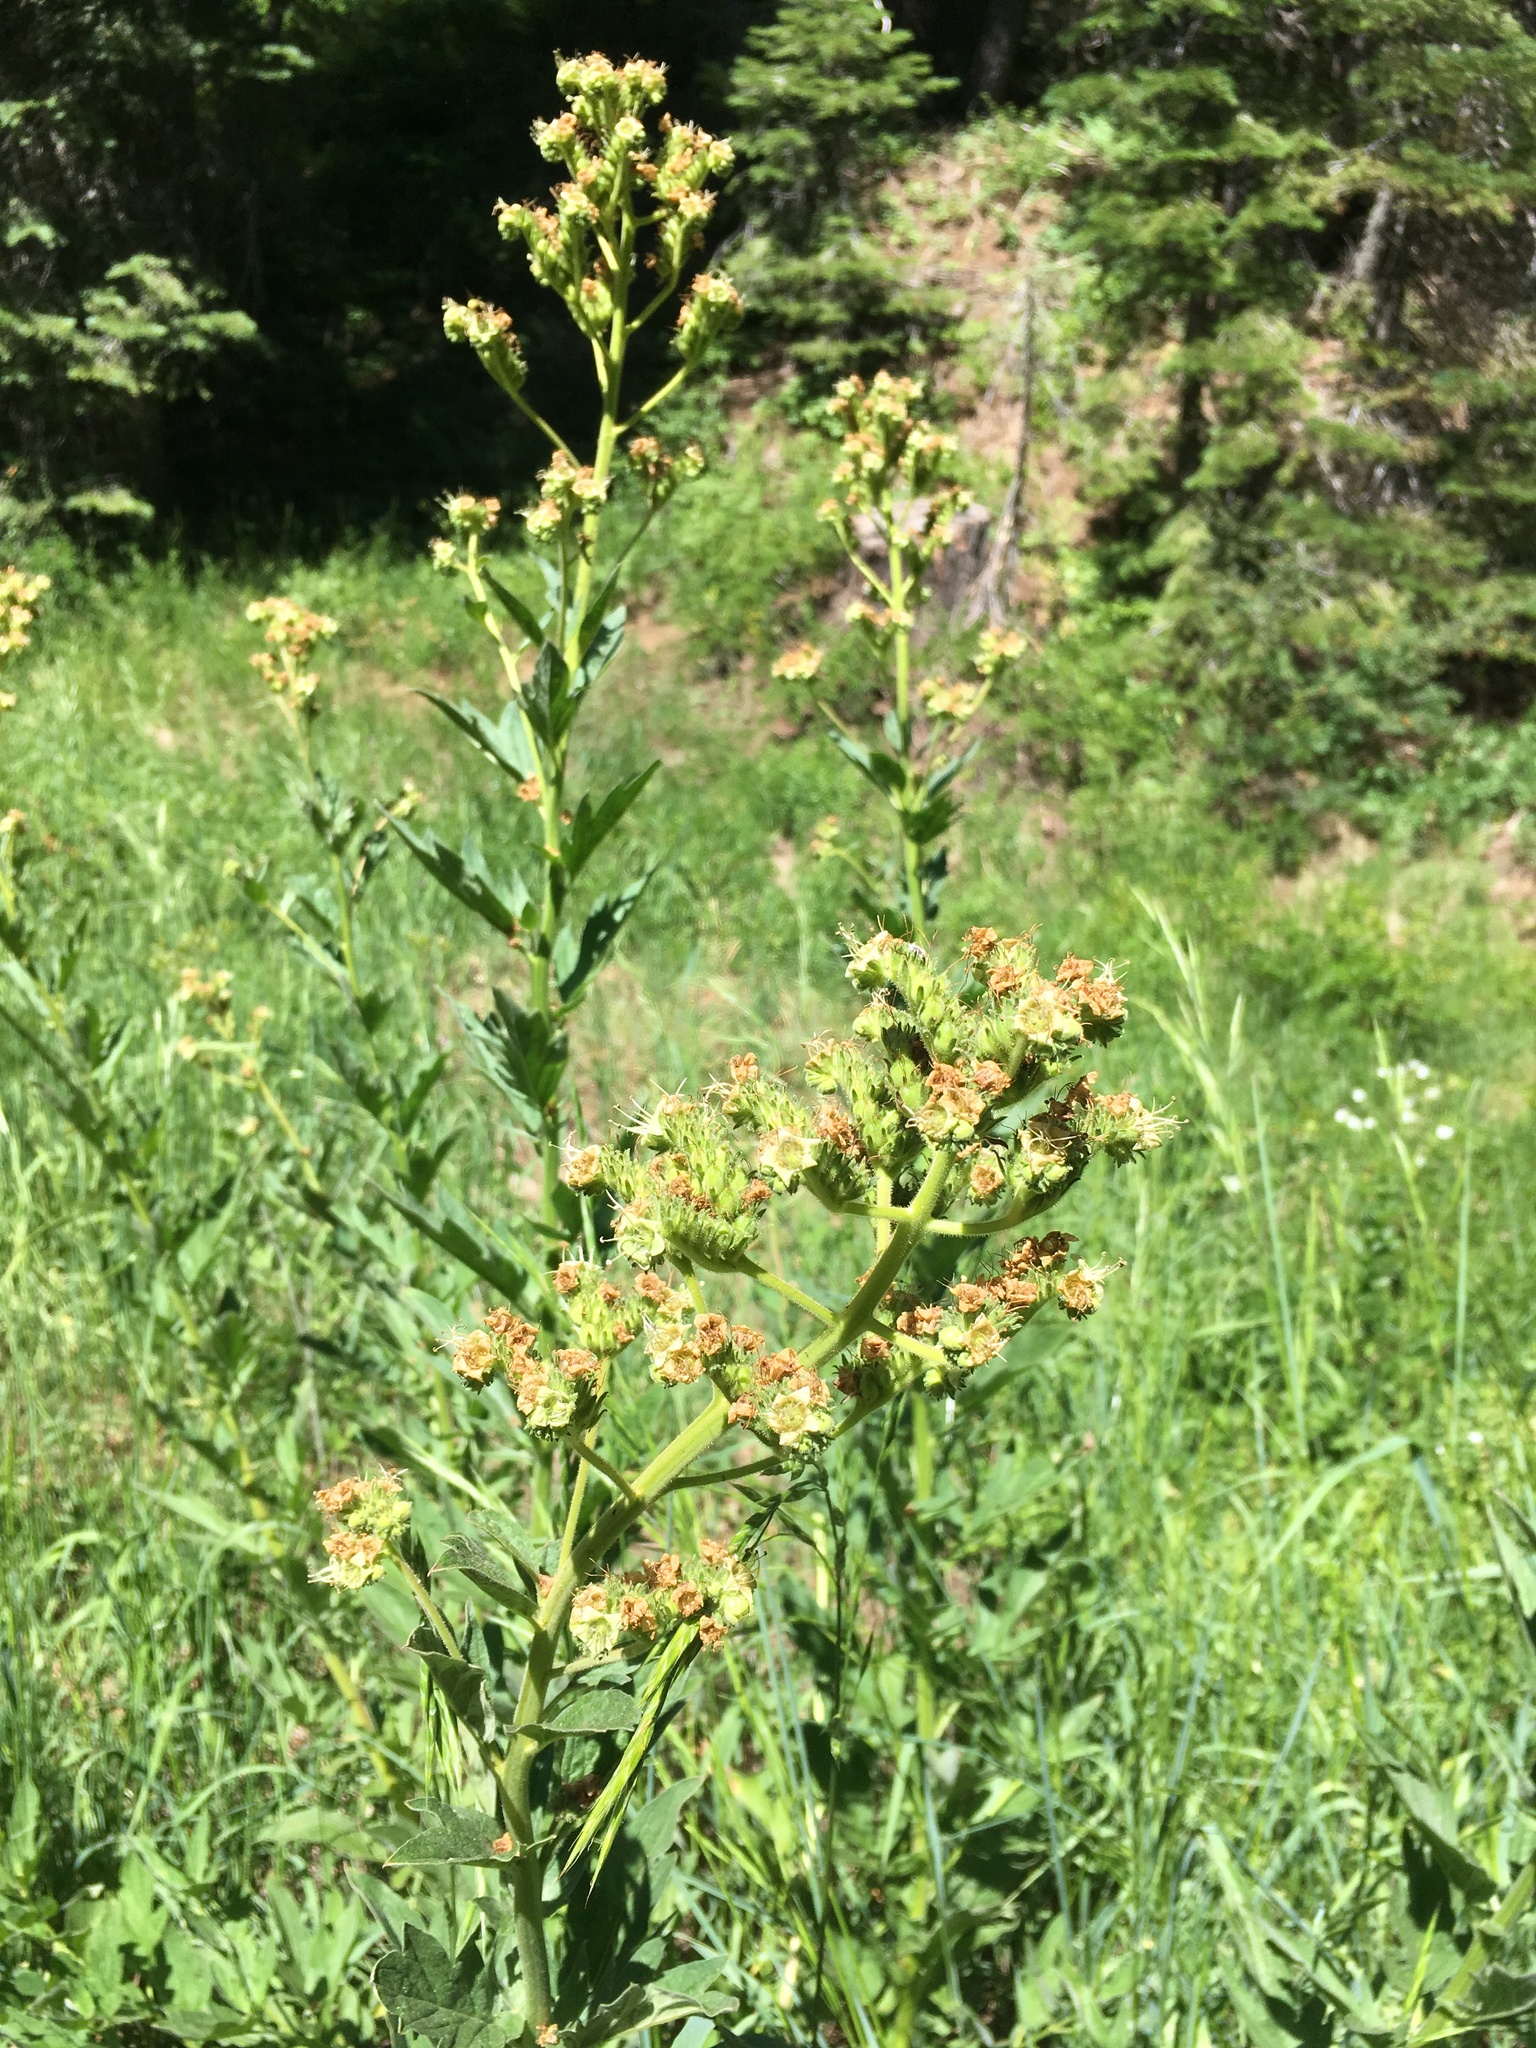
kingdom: Plantae
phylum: Tracheophyta
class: Magnoliopsida
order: Boraginales
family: Hydrophyllaceae
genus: Phacelia
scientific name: Phacelia procera
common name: Tall phacelia
